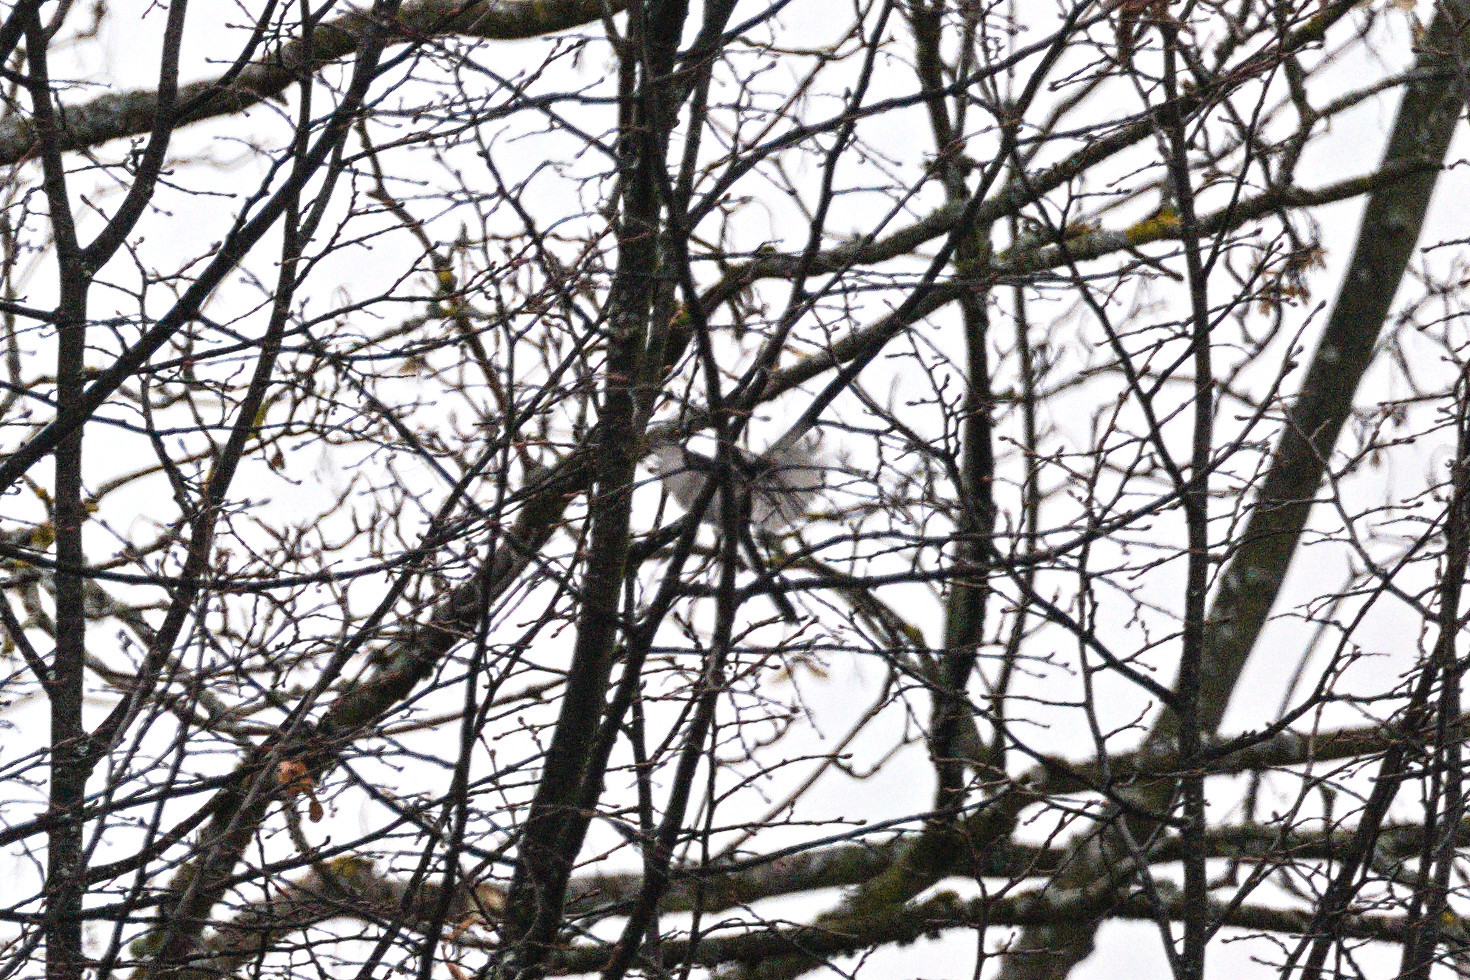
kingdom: Animalia
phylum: Chordata
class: Aves
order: Passeriformes
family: Aegithalidae
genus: Aegithalos
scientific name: Aegithalos caudatus
